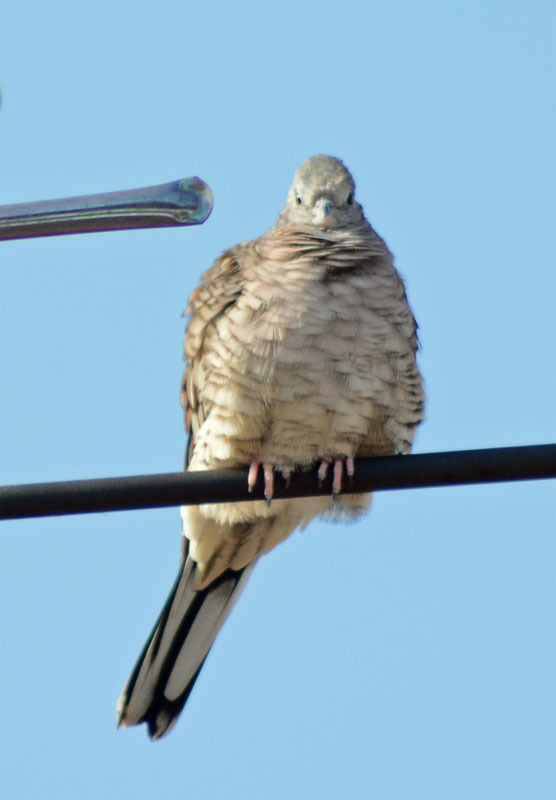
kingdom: Animalia
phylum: Chordata
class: Aves
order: Columbiformes
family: Columbidae
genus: Columbina
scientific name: Columbina inca
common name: Inca dove
